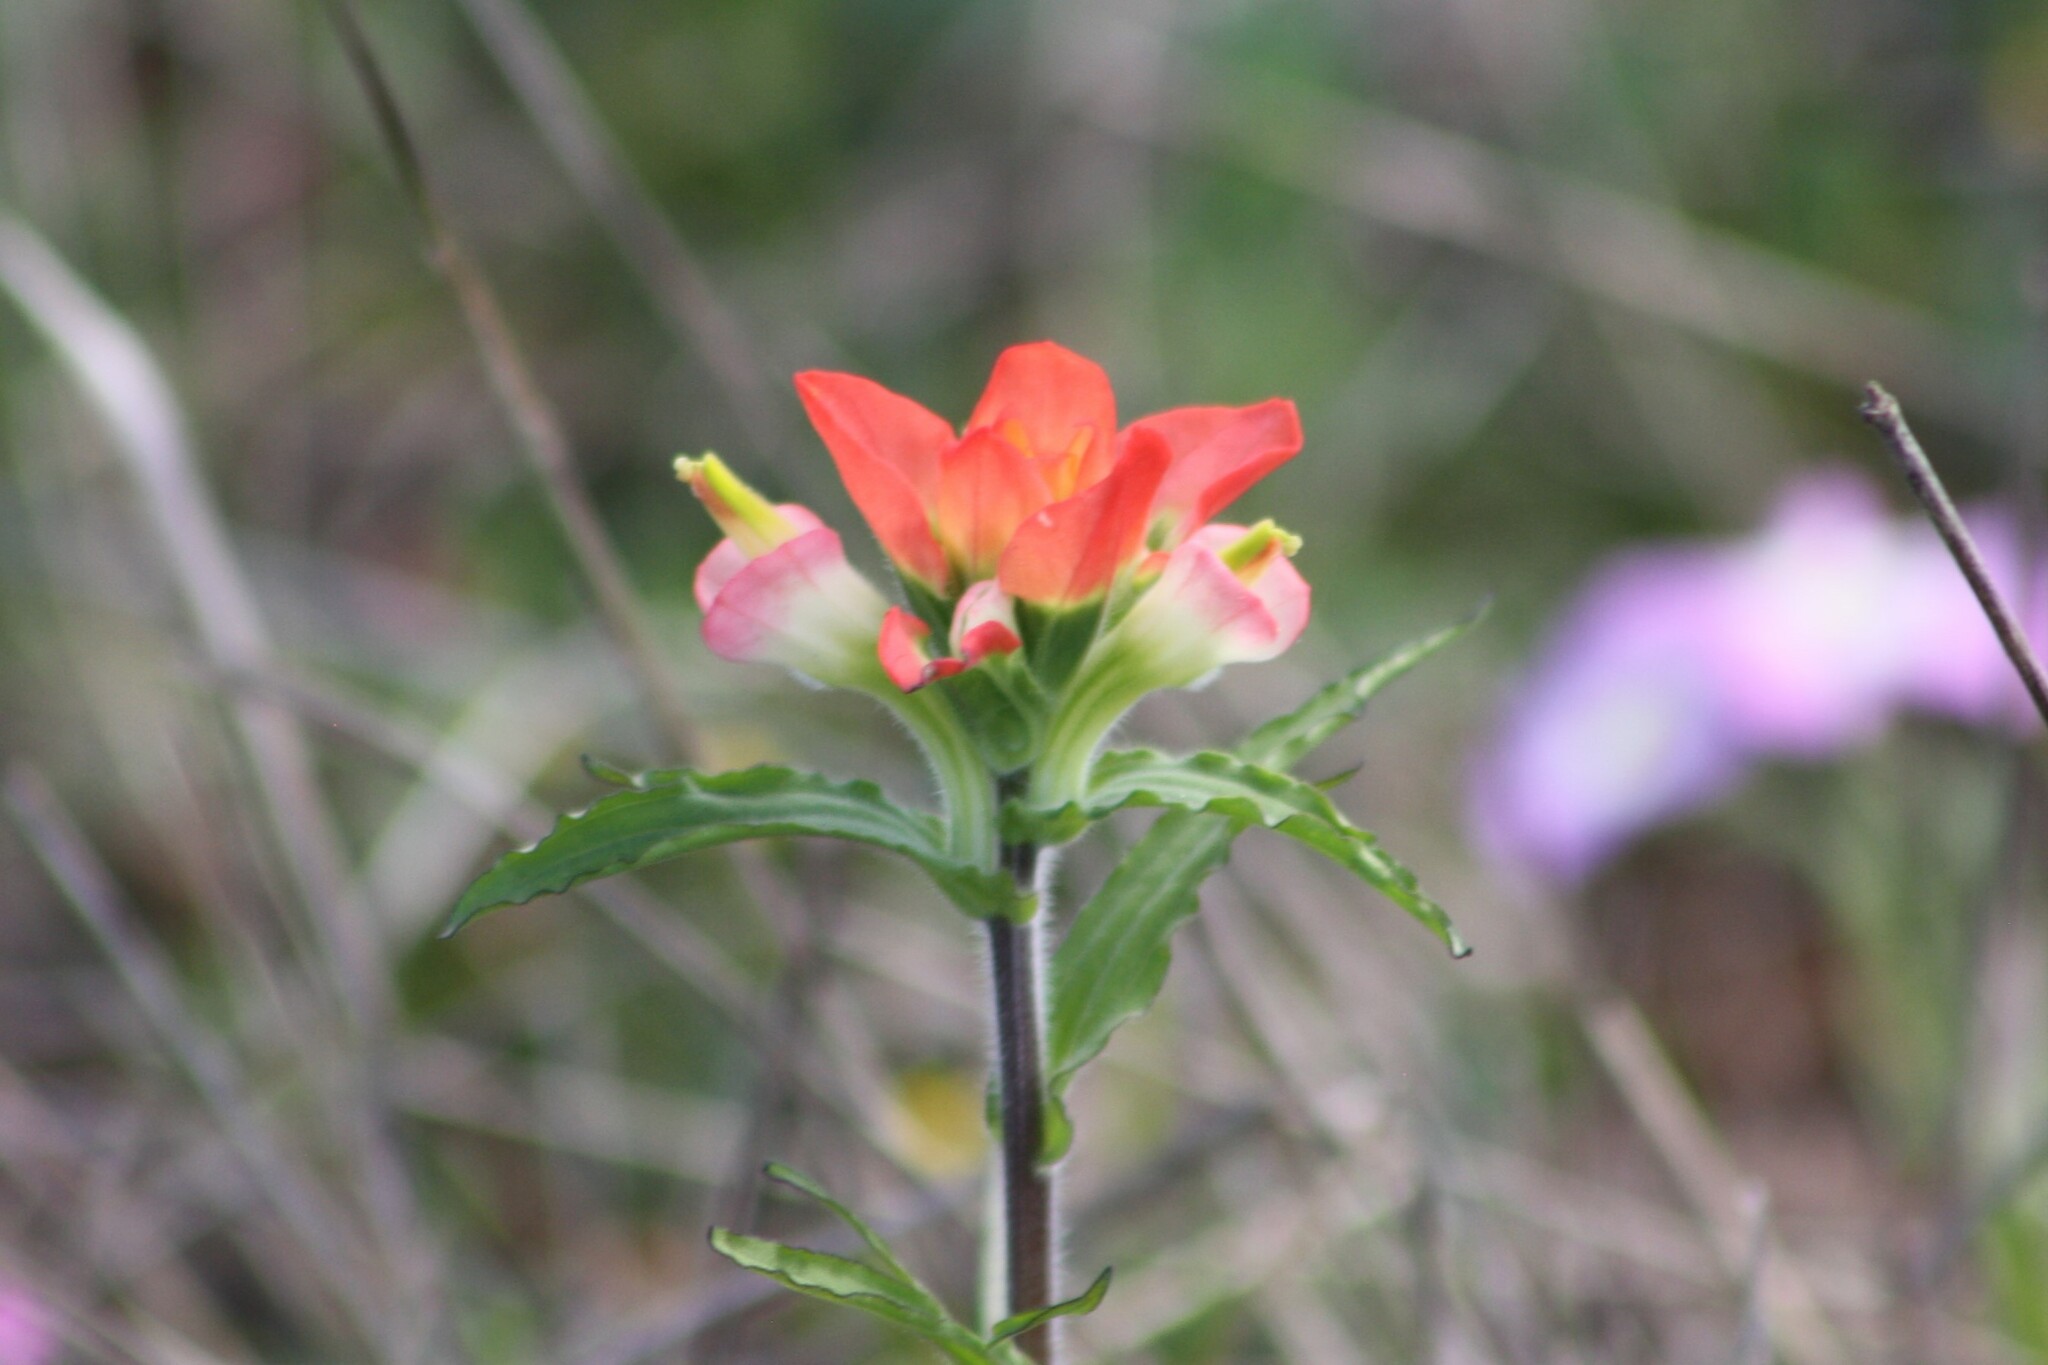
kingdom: Plantae
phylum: Tracheophyta
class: Magnoliopsida
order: Lamiales
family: Orobanchaceae
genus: Castilleja
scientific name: Castilleja indivisa
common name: Texas paintbrush
